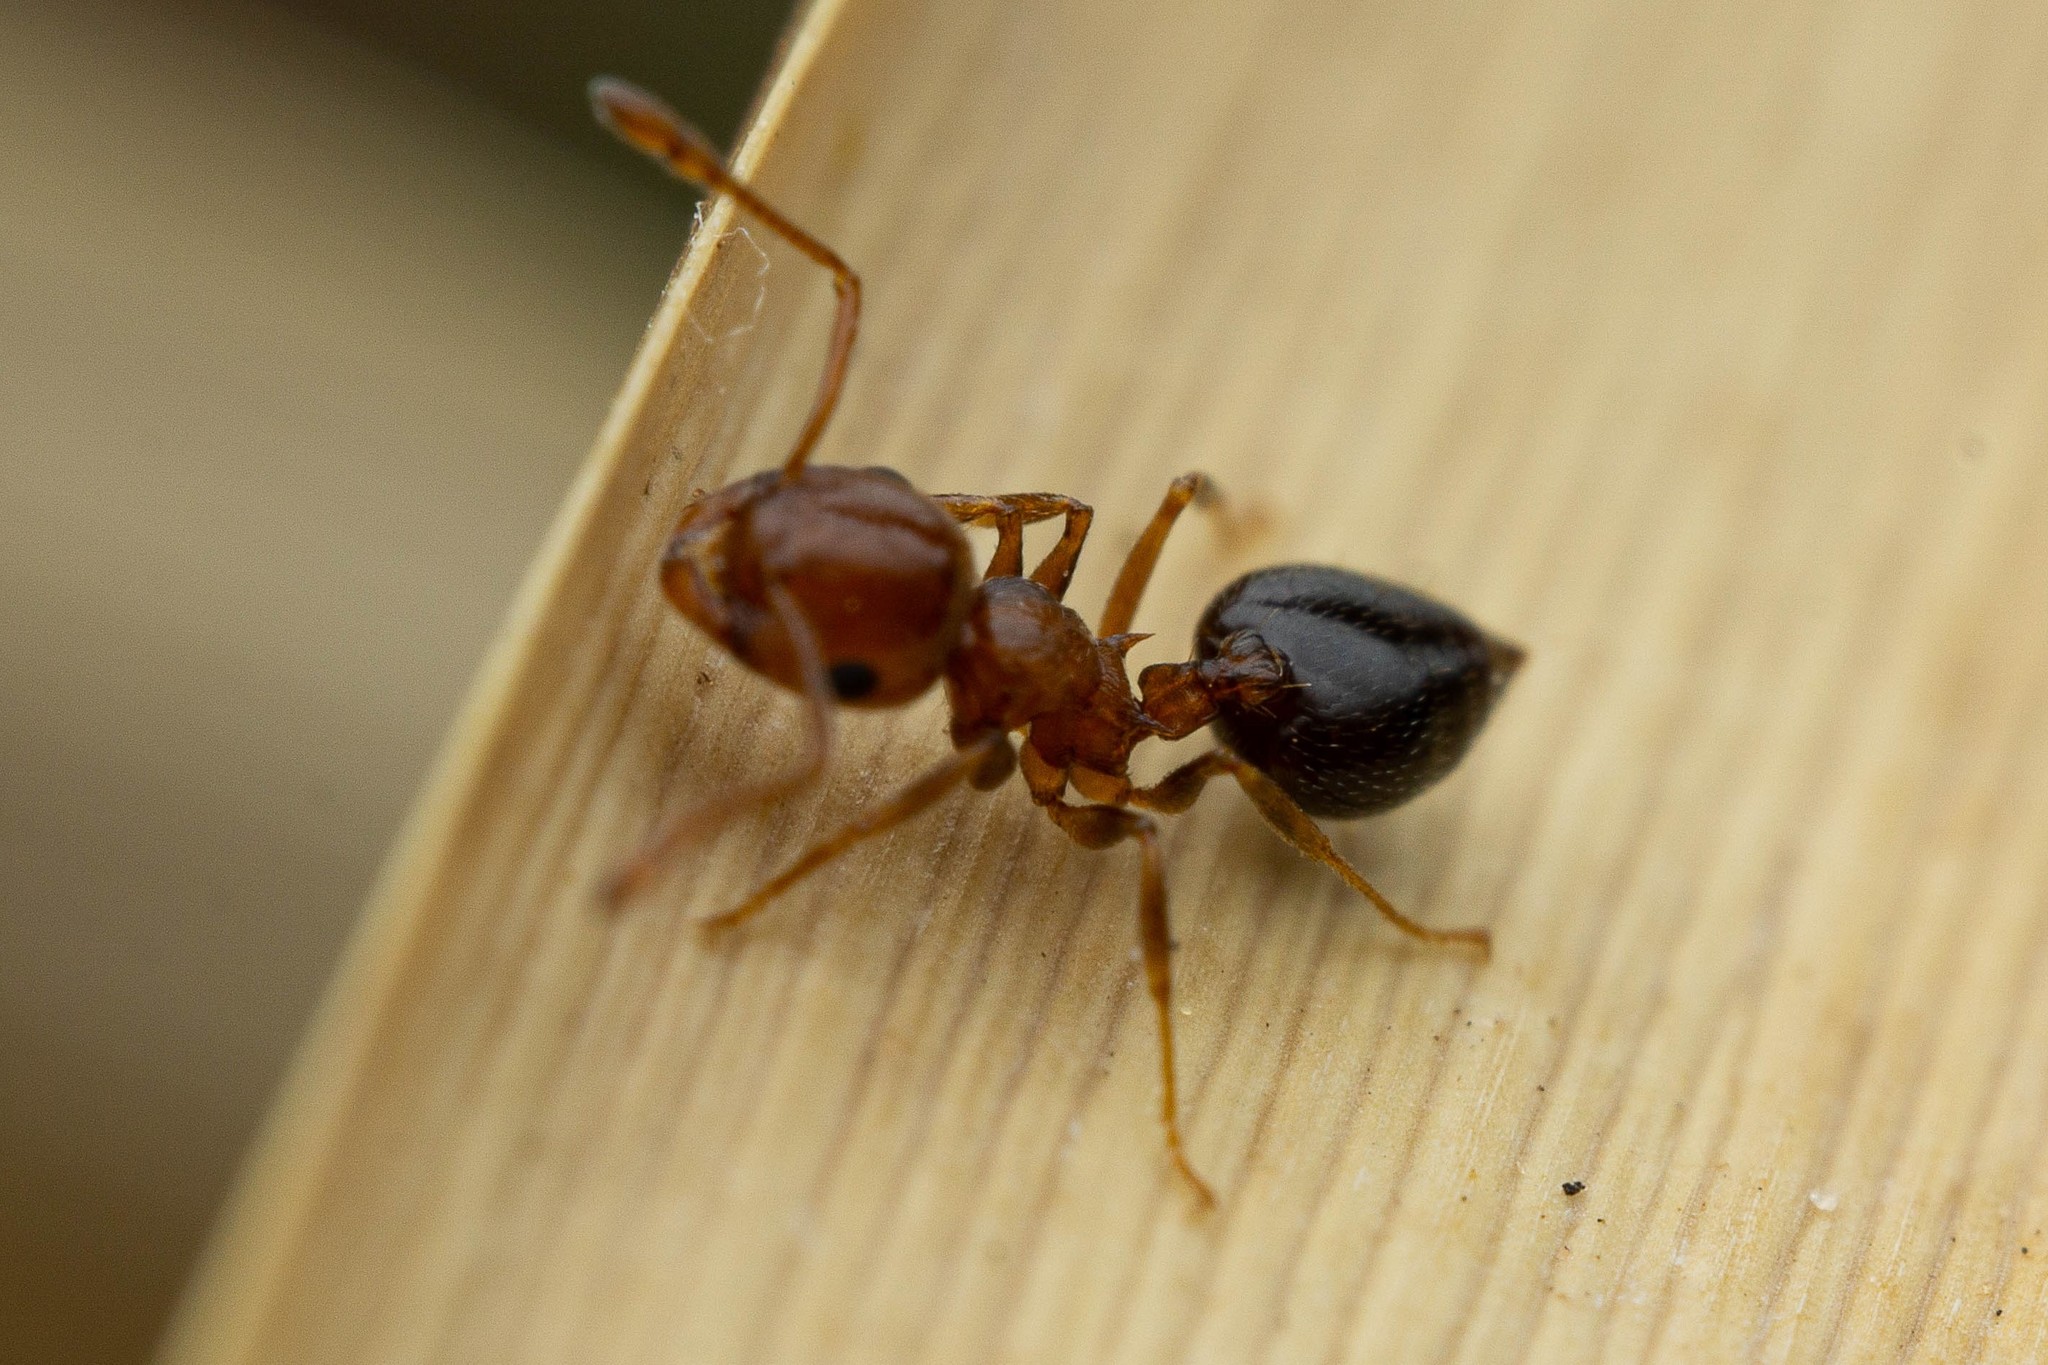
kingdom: Animalia
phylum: Arthropoda
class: Insecta
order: Hymenoptera
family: Formicidae
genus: Crematogaster
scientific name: Crematogaster depilis
